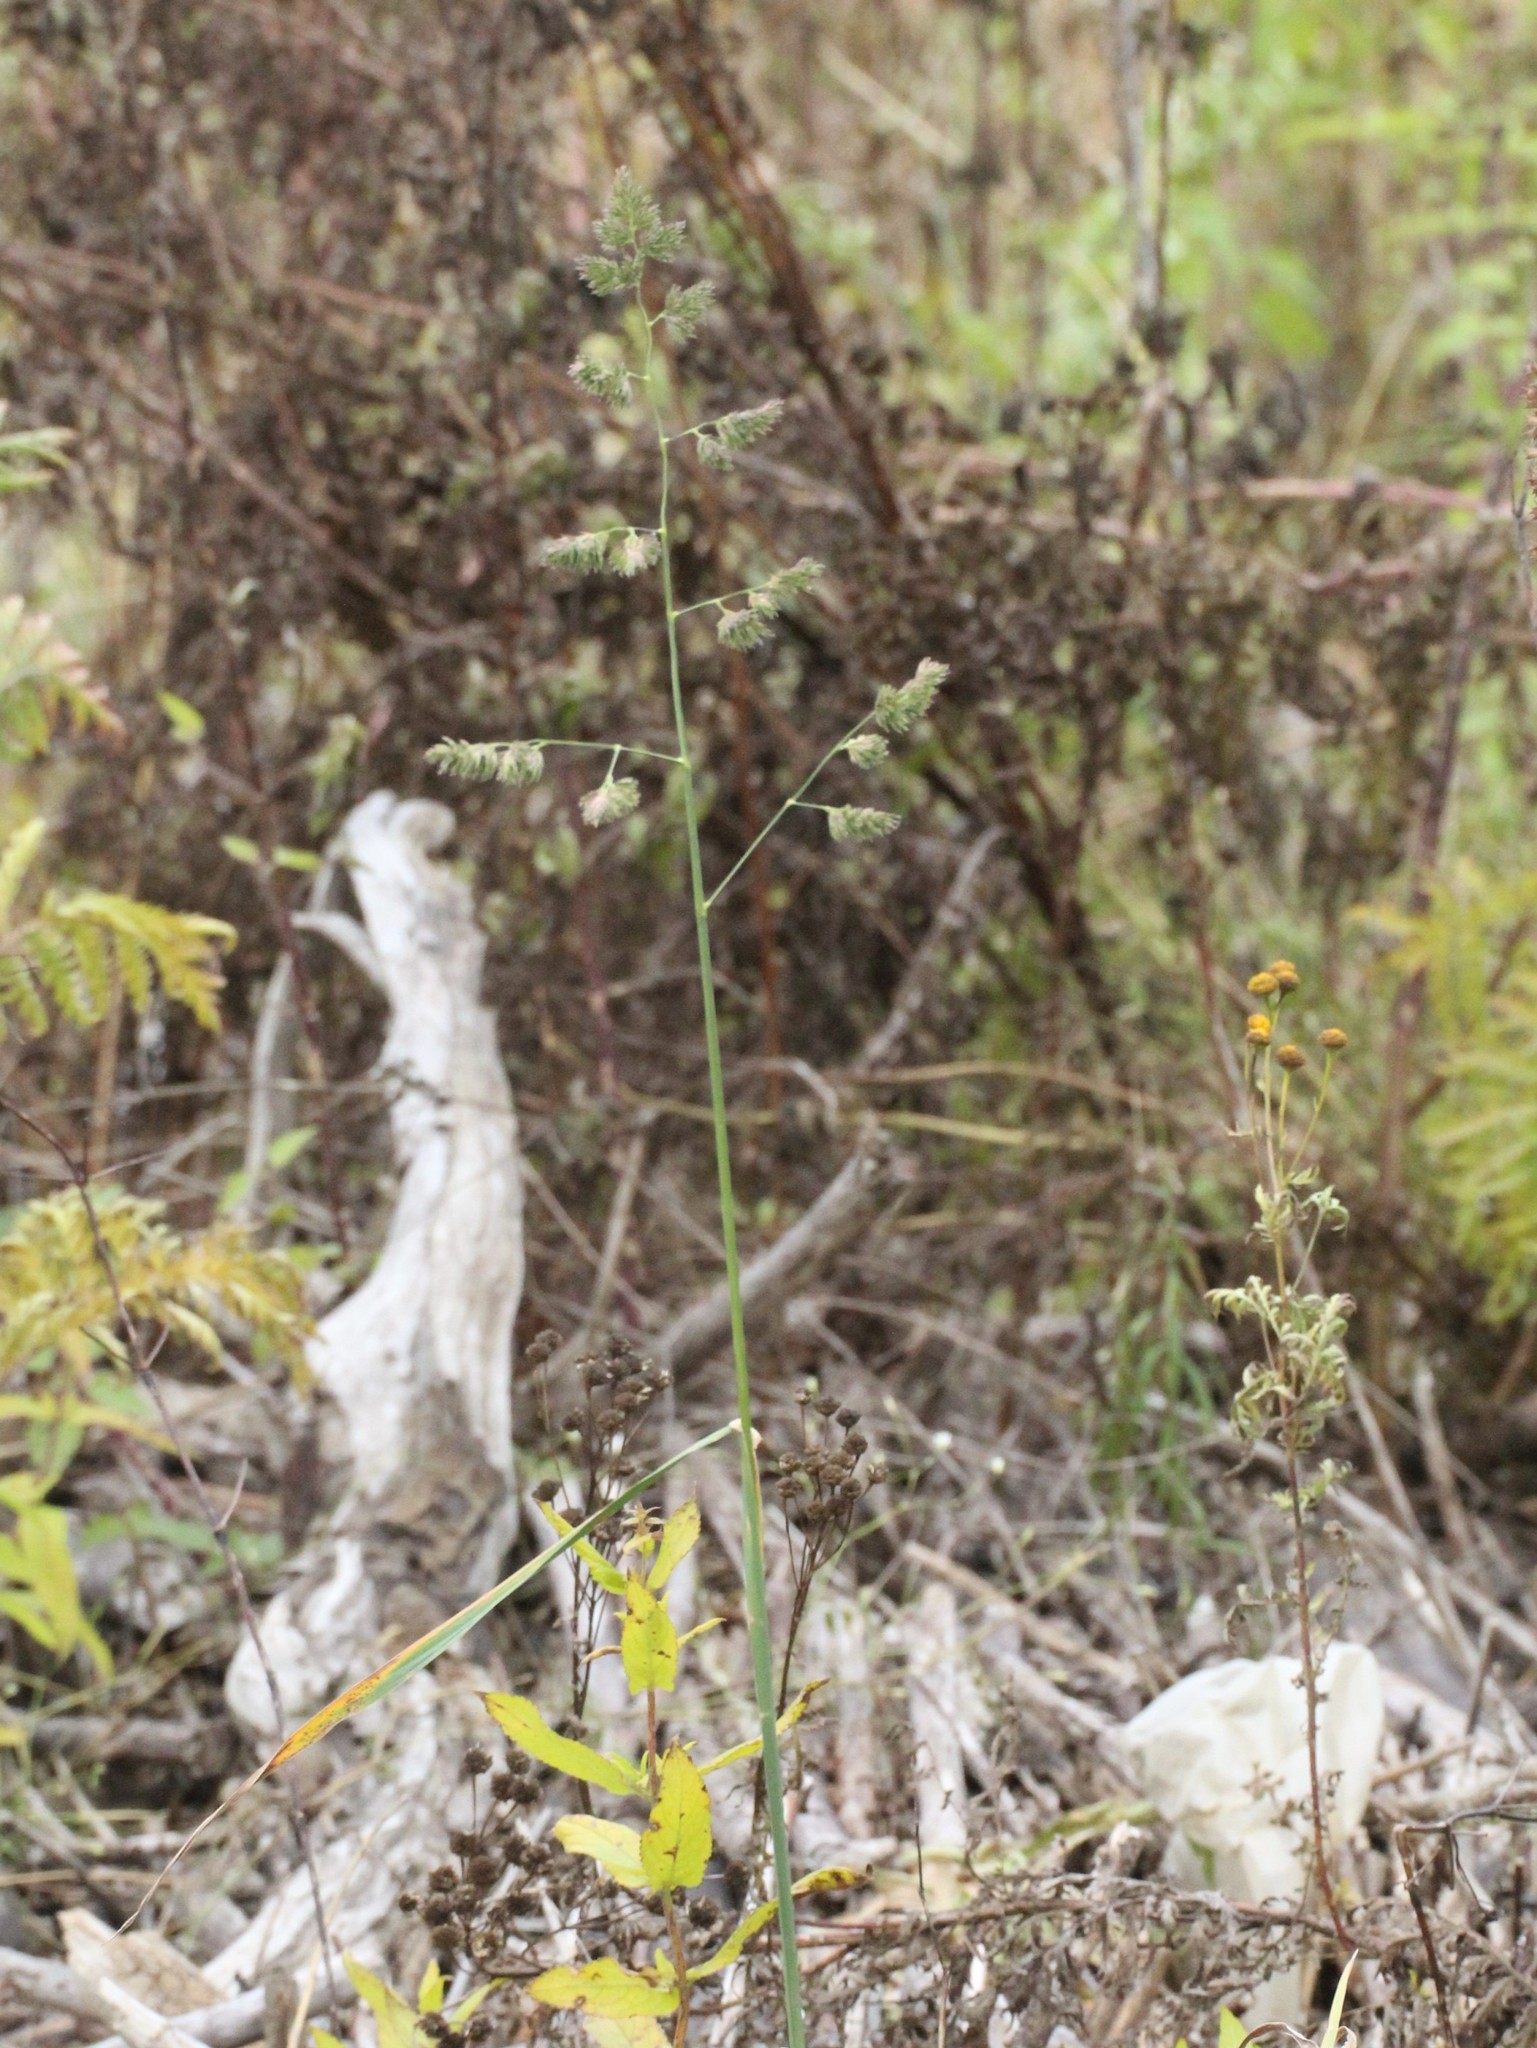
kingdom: Plantae
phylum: Tracheophyta
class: Liliopsida
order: Poales
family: Poaceae
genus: Dactylis
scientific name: Dactylis glomerata
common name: Orchardgrass
